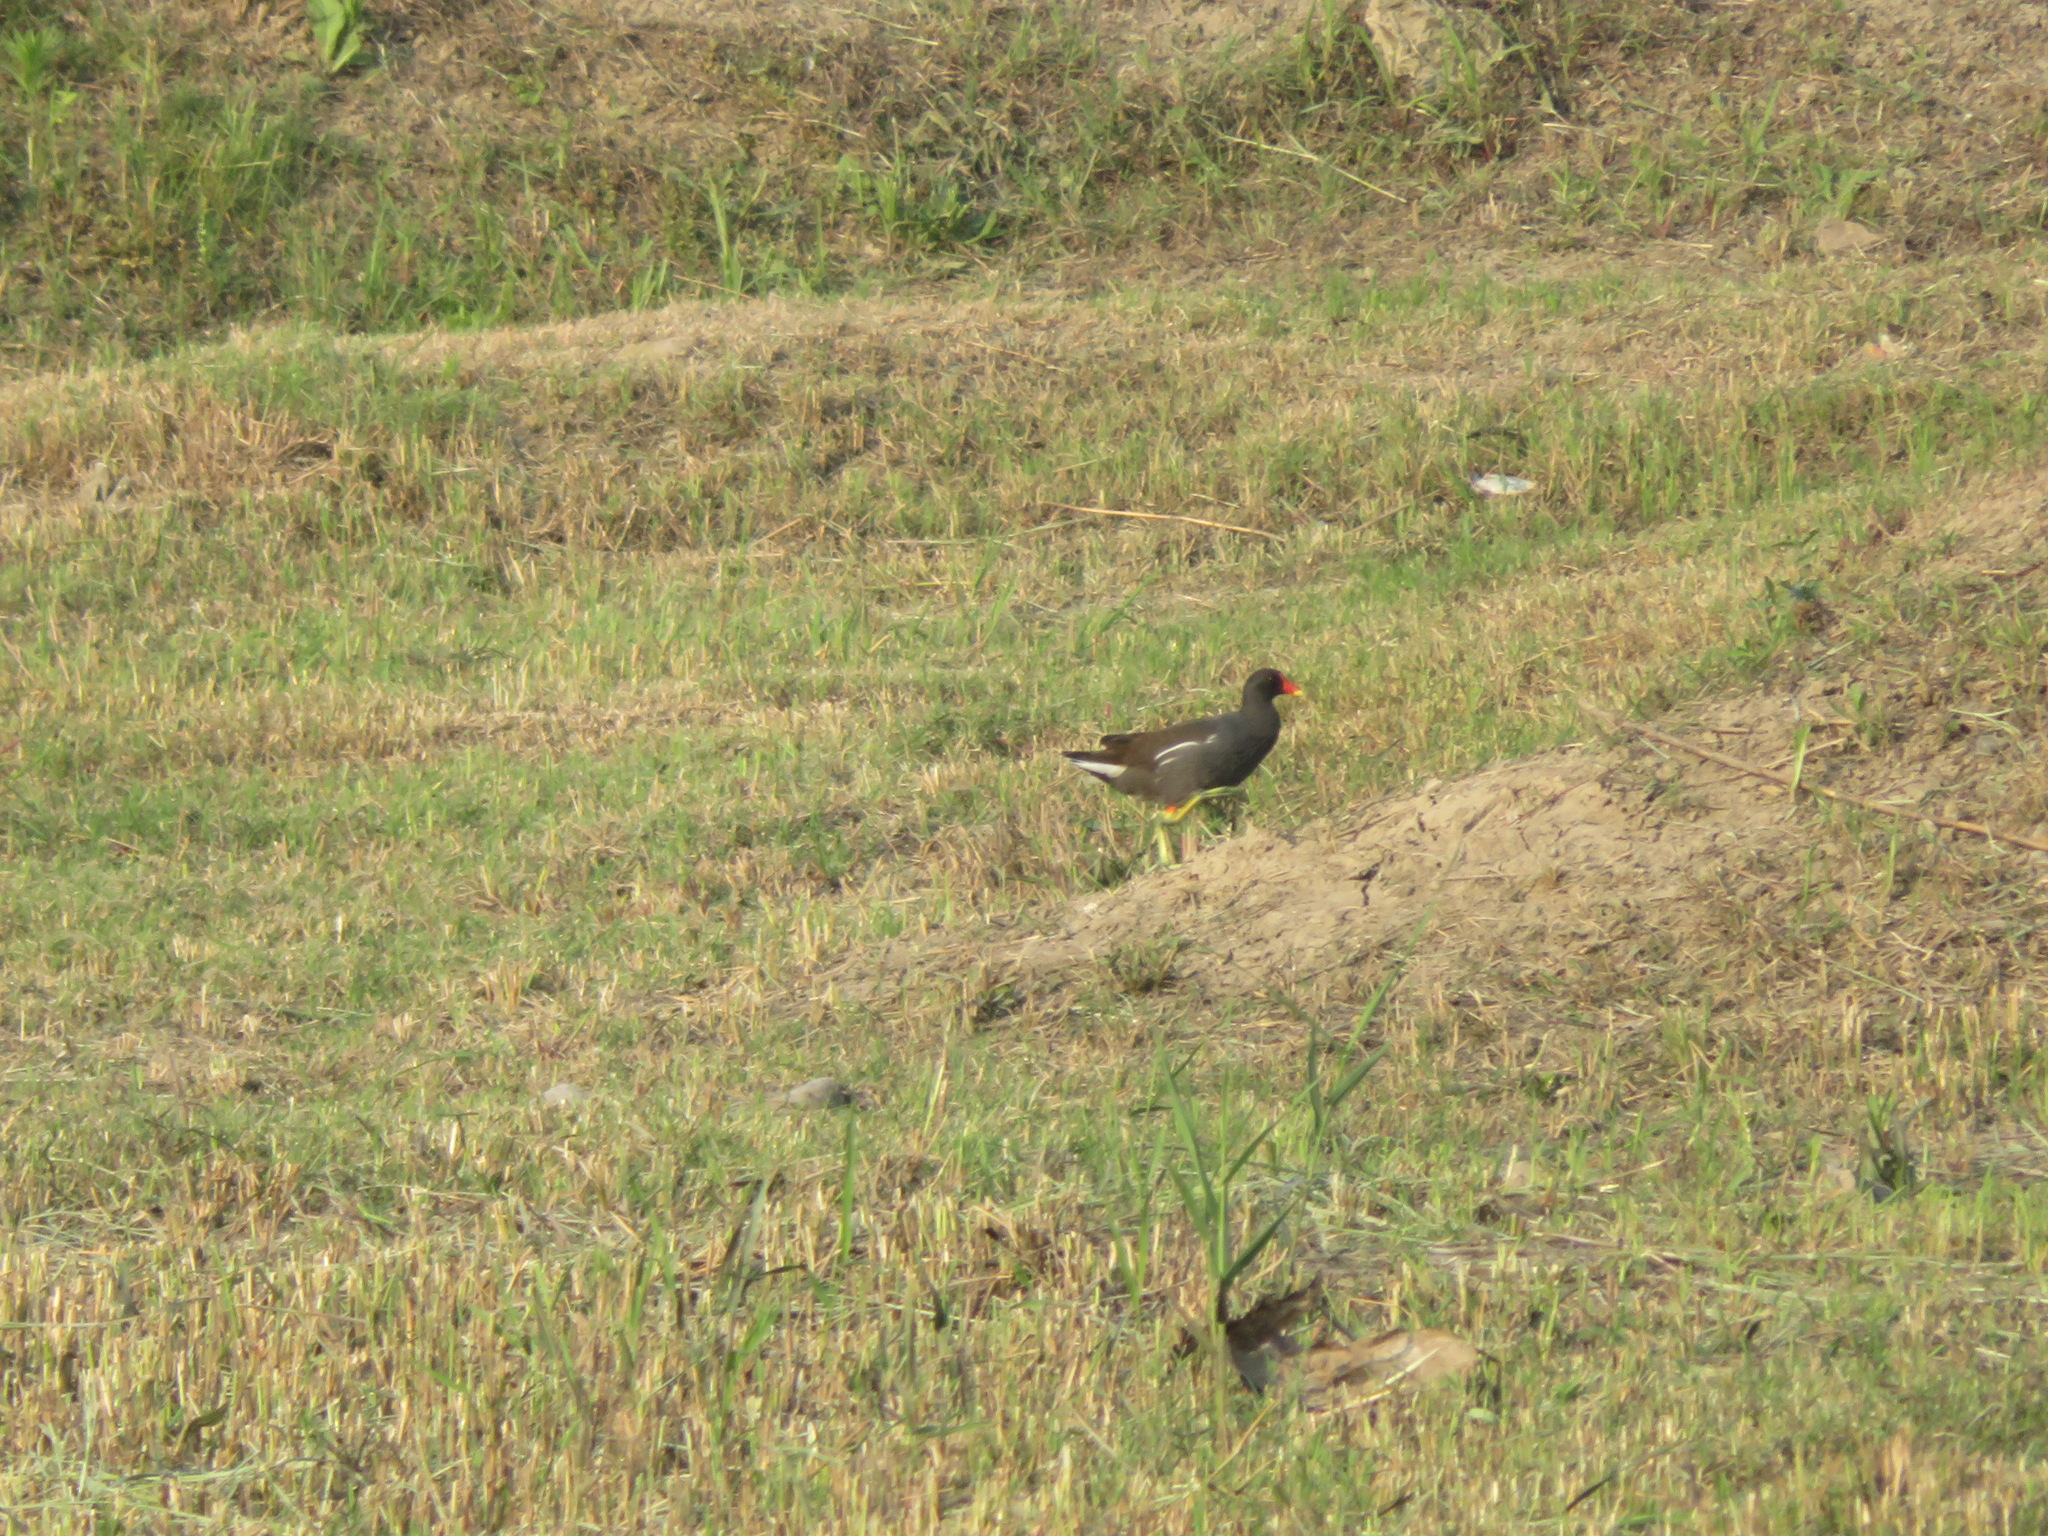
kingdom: Animalia
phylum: Chordata
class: Aves
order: Gruiformes
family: Rallidae
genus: Gallinula
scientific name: Gallinula chloropus
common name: Common moorhen
